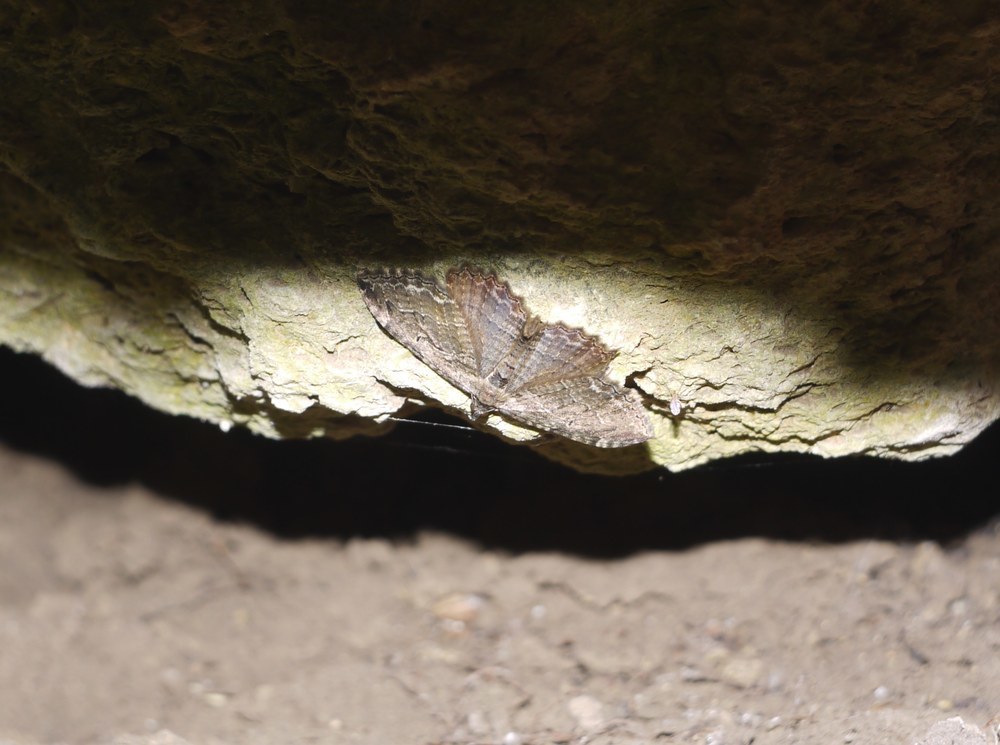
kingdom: Animalia
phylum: Arthropoda
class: Insecta
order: Lepidoptera
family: Geometridae
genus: Philereme
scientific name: Philereme transversata
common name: Dark umber
